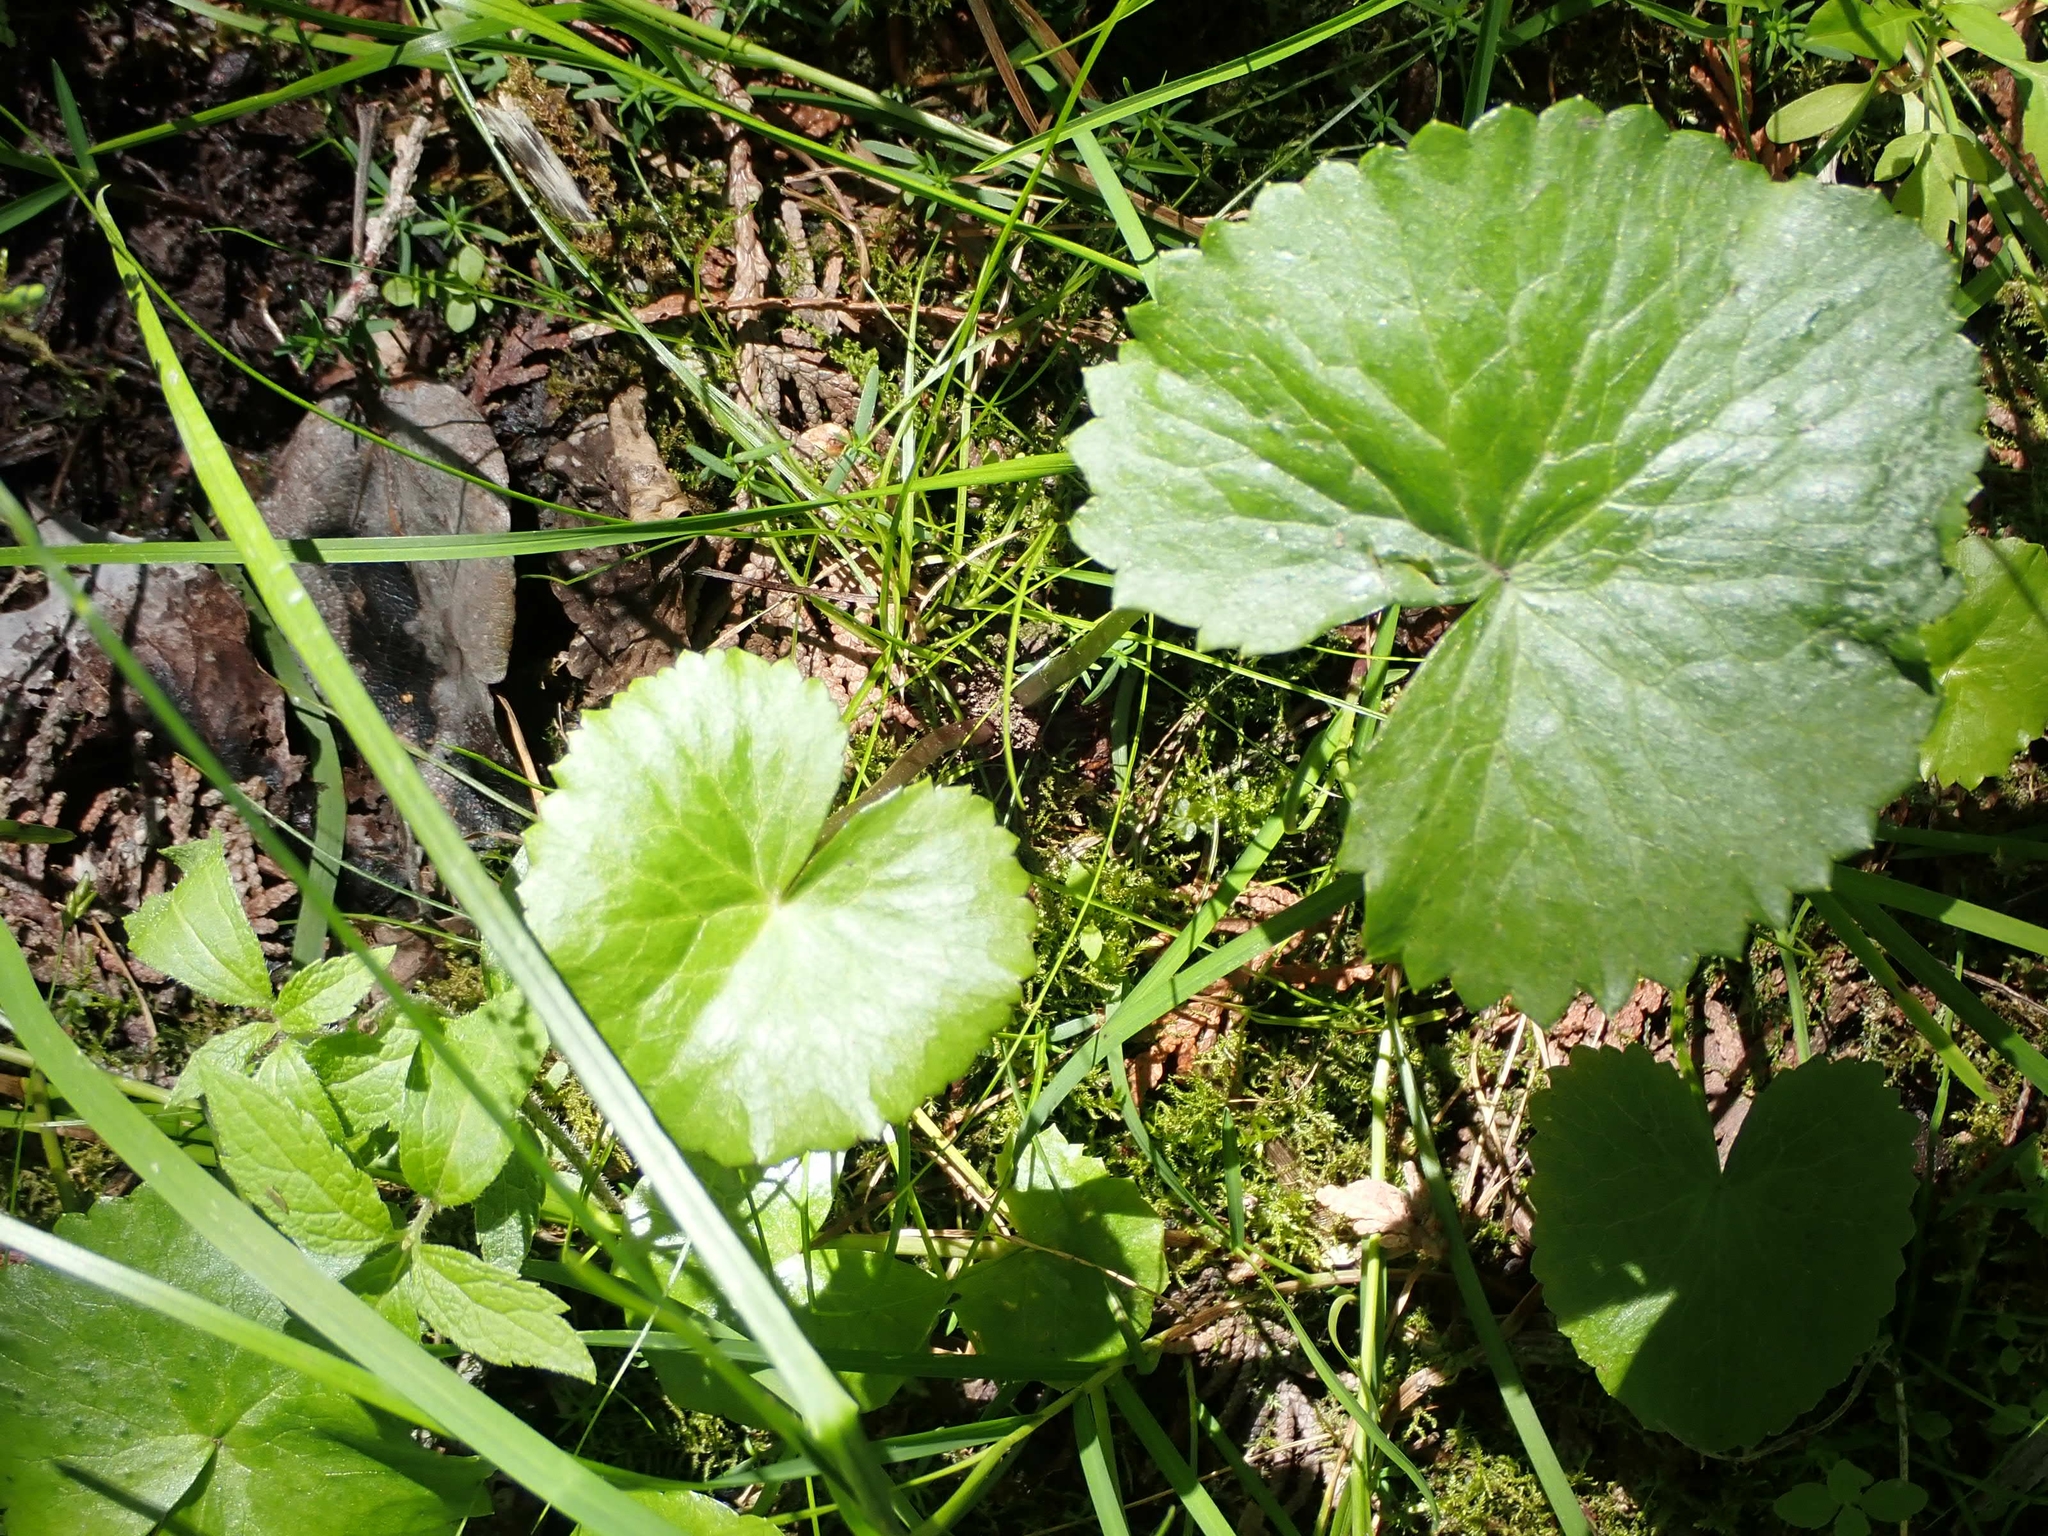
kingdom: Plantae
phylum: Tracheophyta
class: Magnoliopsida
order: Ranunculales
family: Ranunculaceae
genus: Caltha
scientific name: Caltha palustris
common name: Marsh marigold
